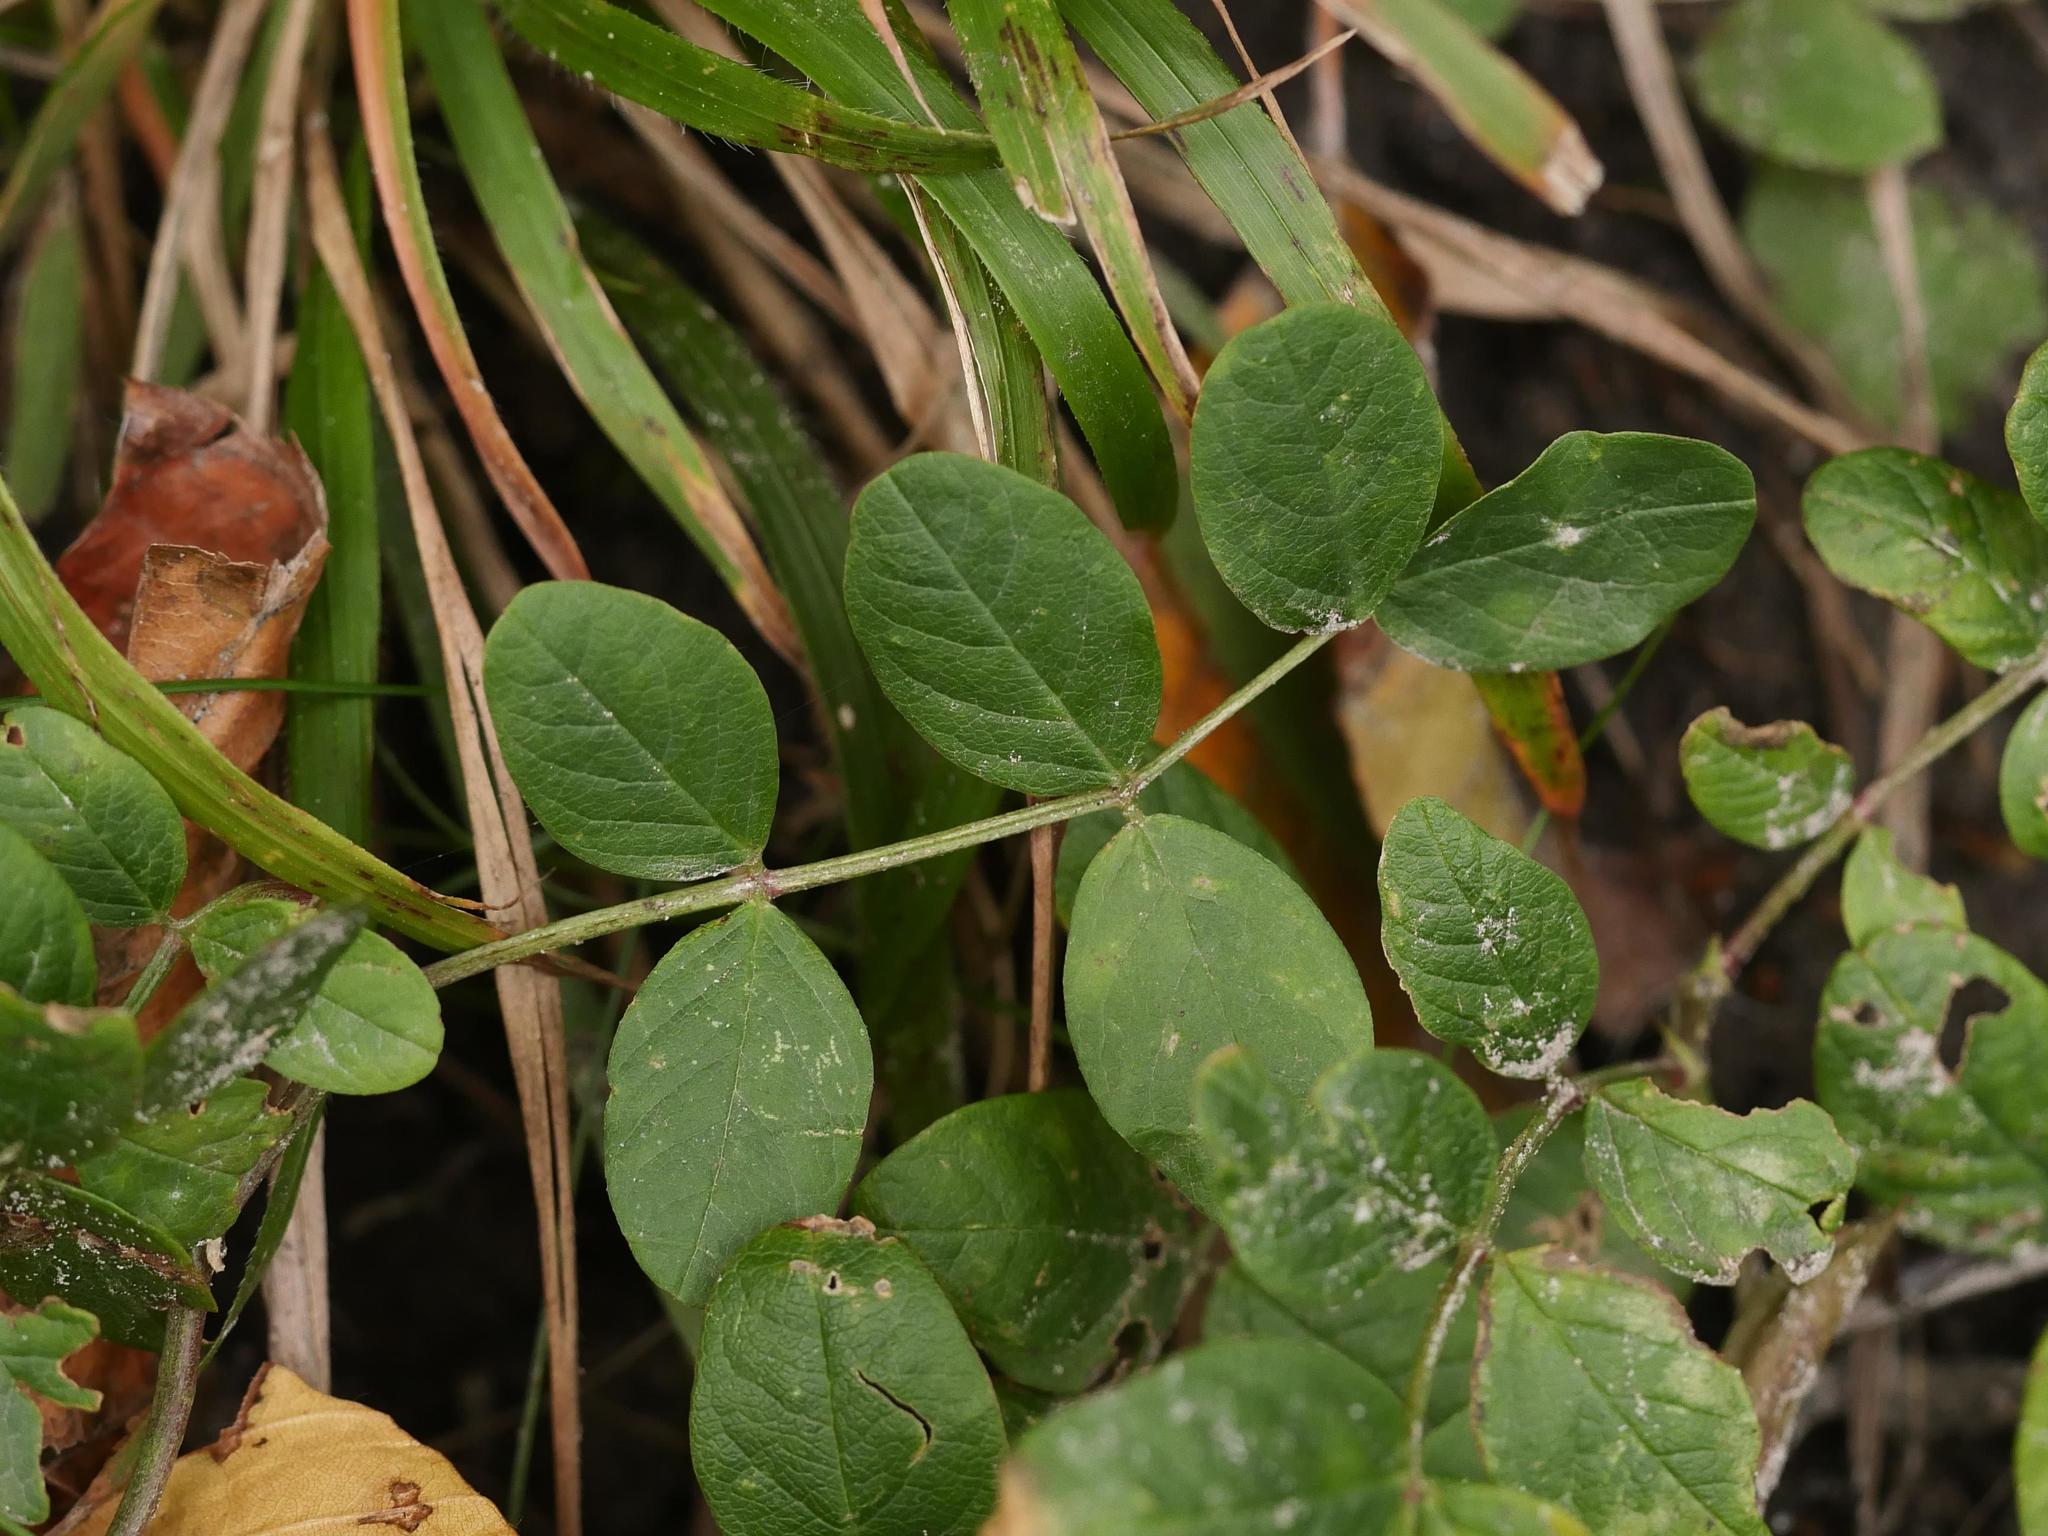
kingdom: Plantae
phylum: Tracheophyta
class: Magnoliopsida
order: Fabales
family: Fabaceae
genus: Astragalus
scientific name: Astragalus glycyphyllos
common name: Wild liquorice
